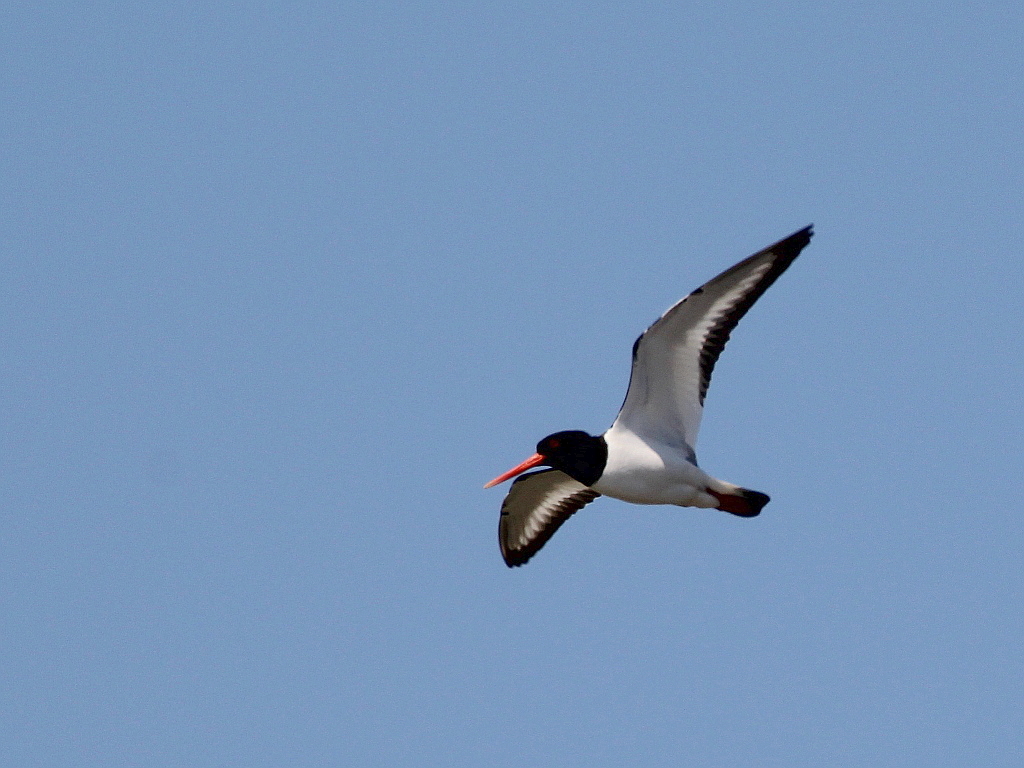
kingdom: Animalia
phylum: Chordata
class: Aves
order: Charadriiformes
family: Haematopodidae
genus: Haematopus
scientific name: Haematopus ostralegus
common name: Eurasian oystercatcher
